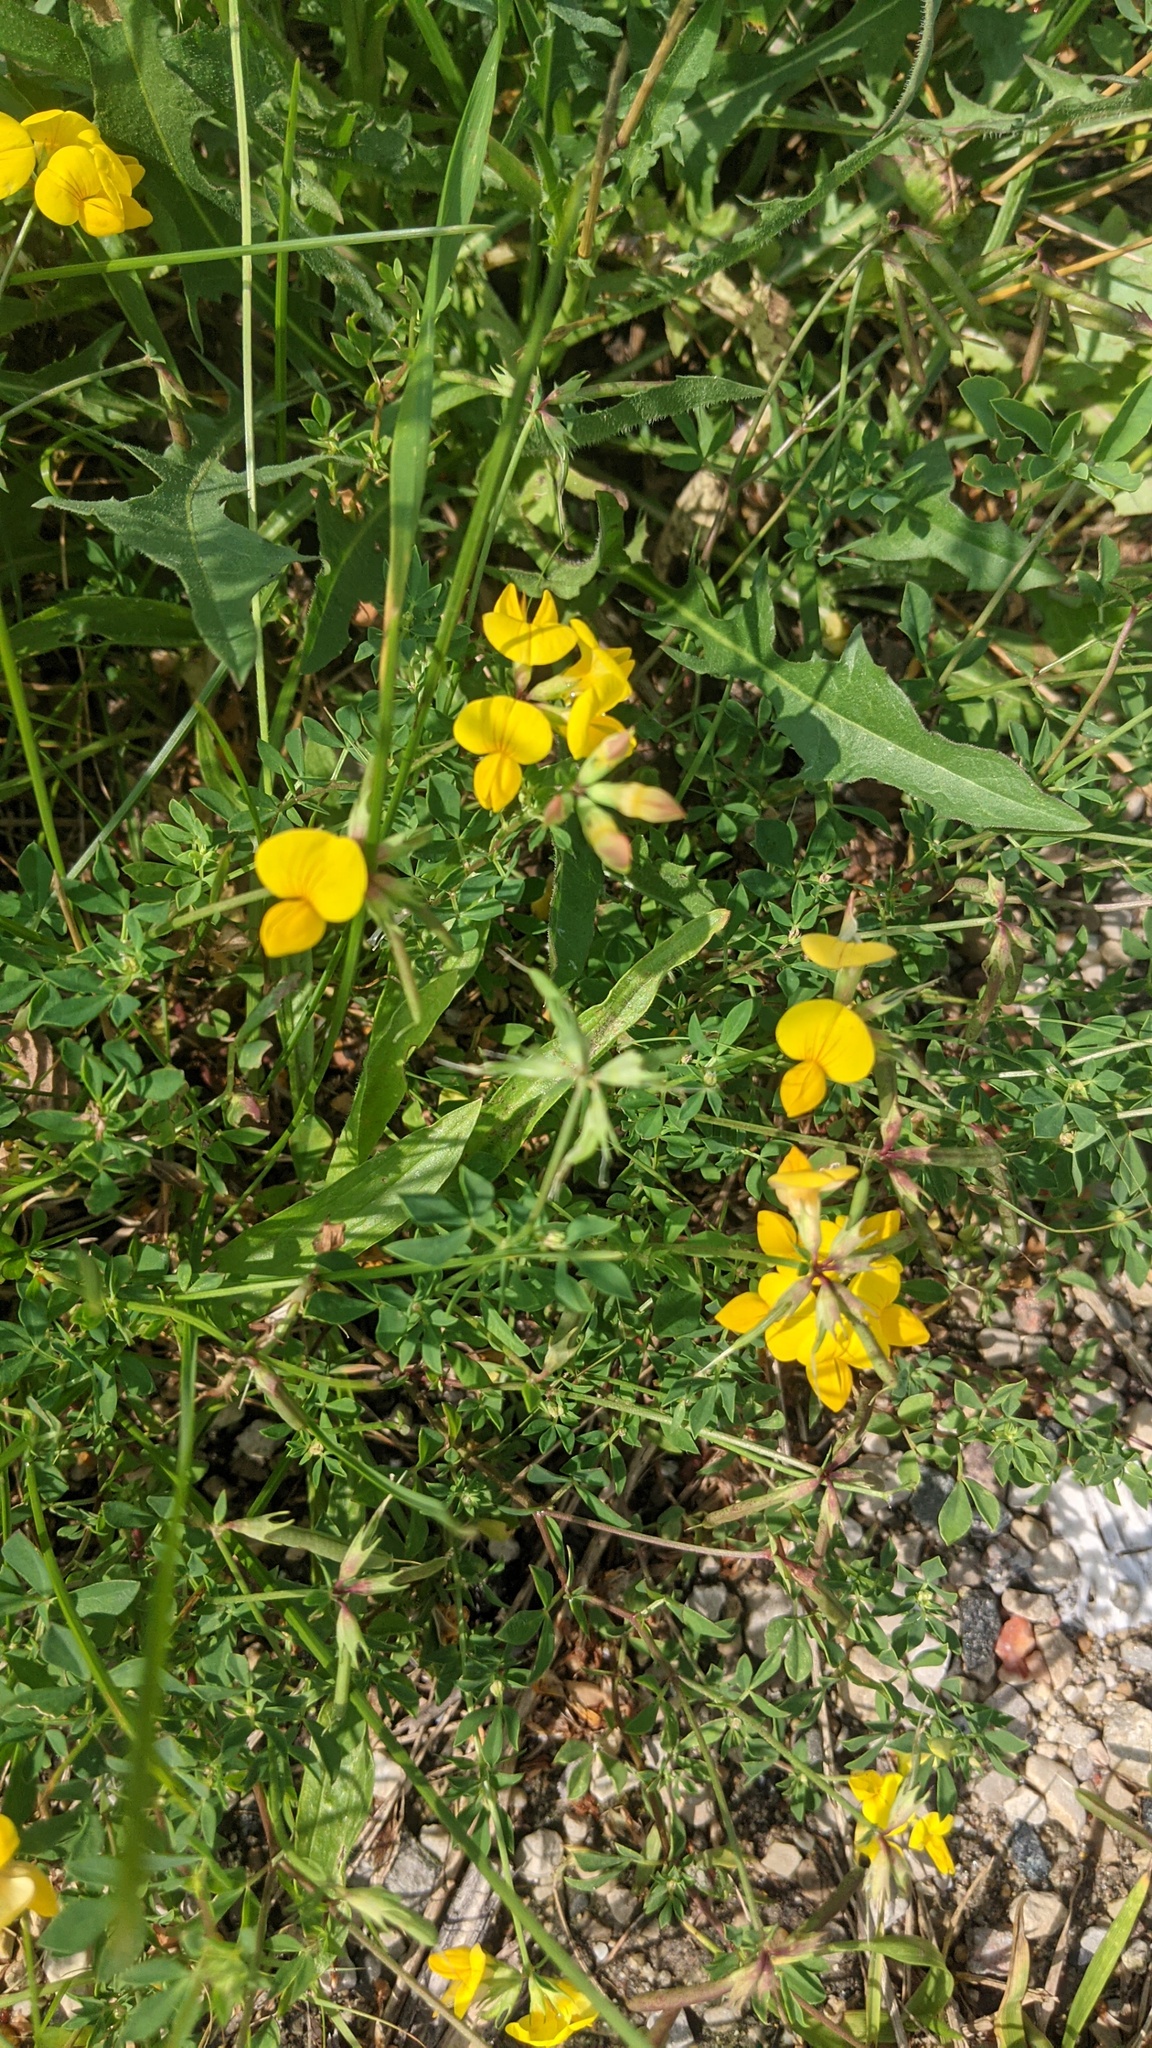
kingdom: Plantae
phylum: Tracheophyta
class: Magnoliopsida
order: Fabales
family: Fabaceae
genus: Lotus
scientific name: Lotus corniculatus
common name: Common bird's-foot-trefoil
